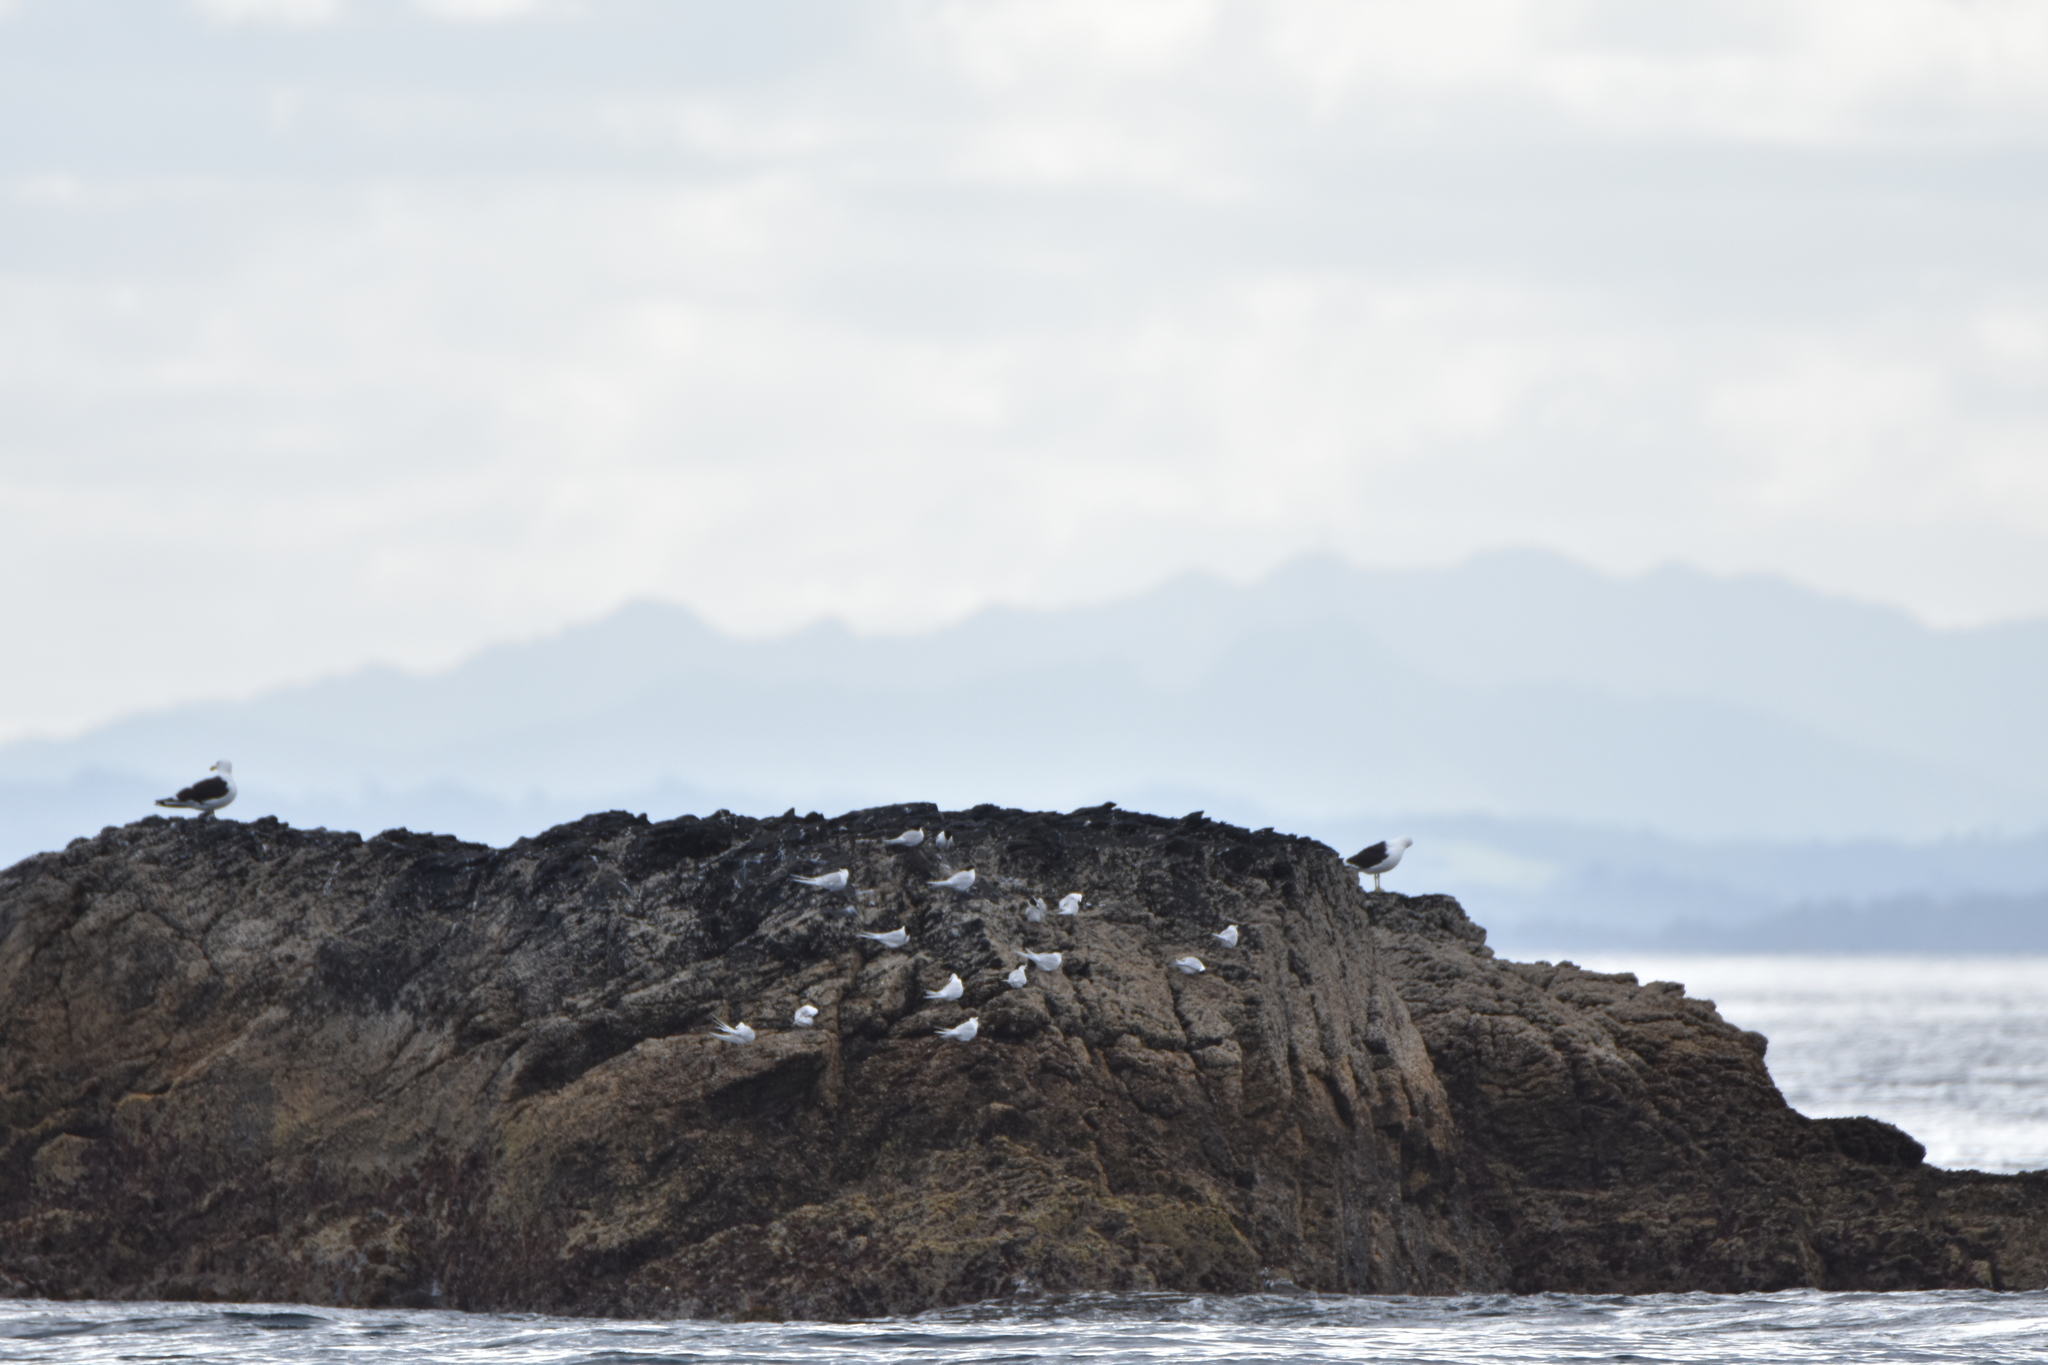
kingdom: Animalia
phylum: Chordata
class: Aves
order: Charadriiformes
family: Laridae
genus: Larus
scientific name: Larus dominicanus
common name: Kelp gull
